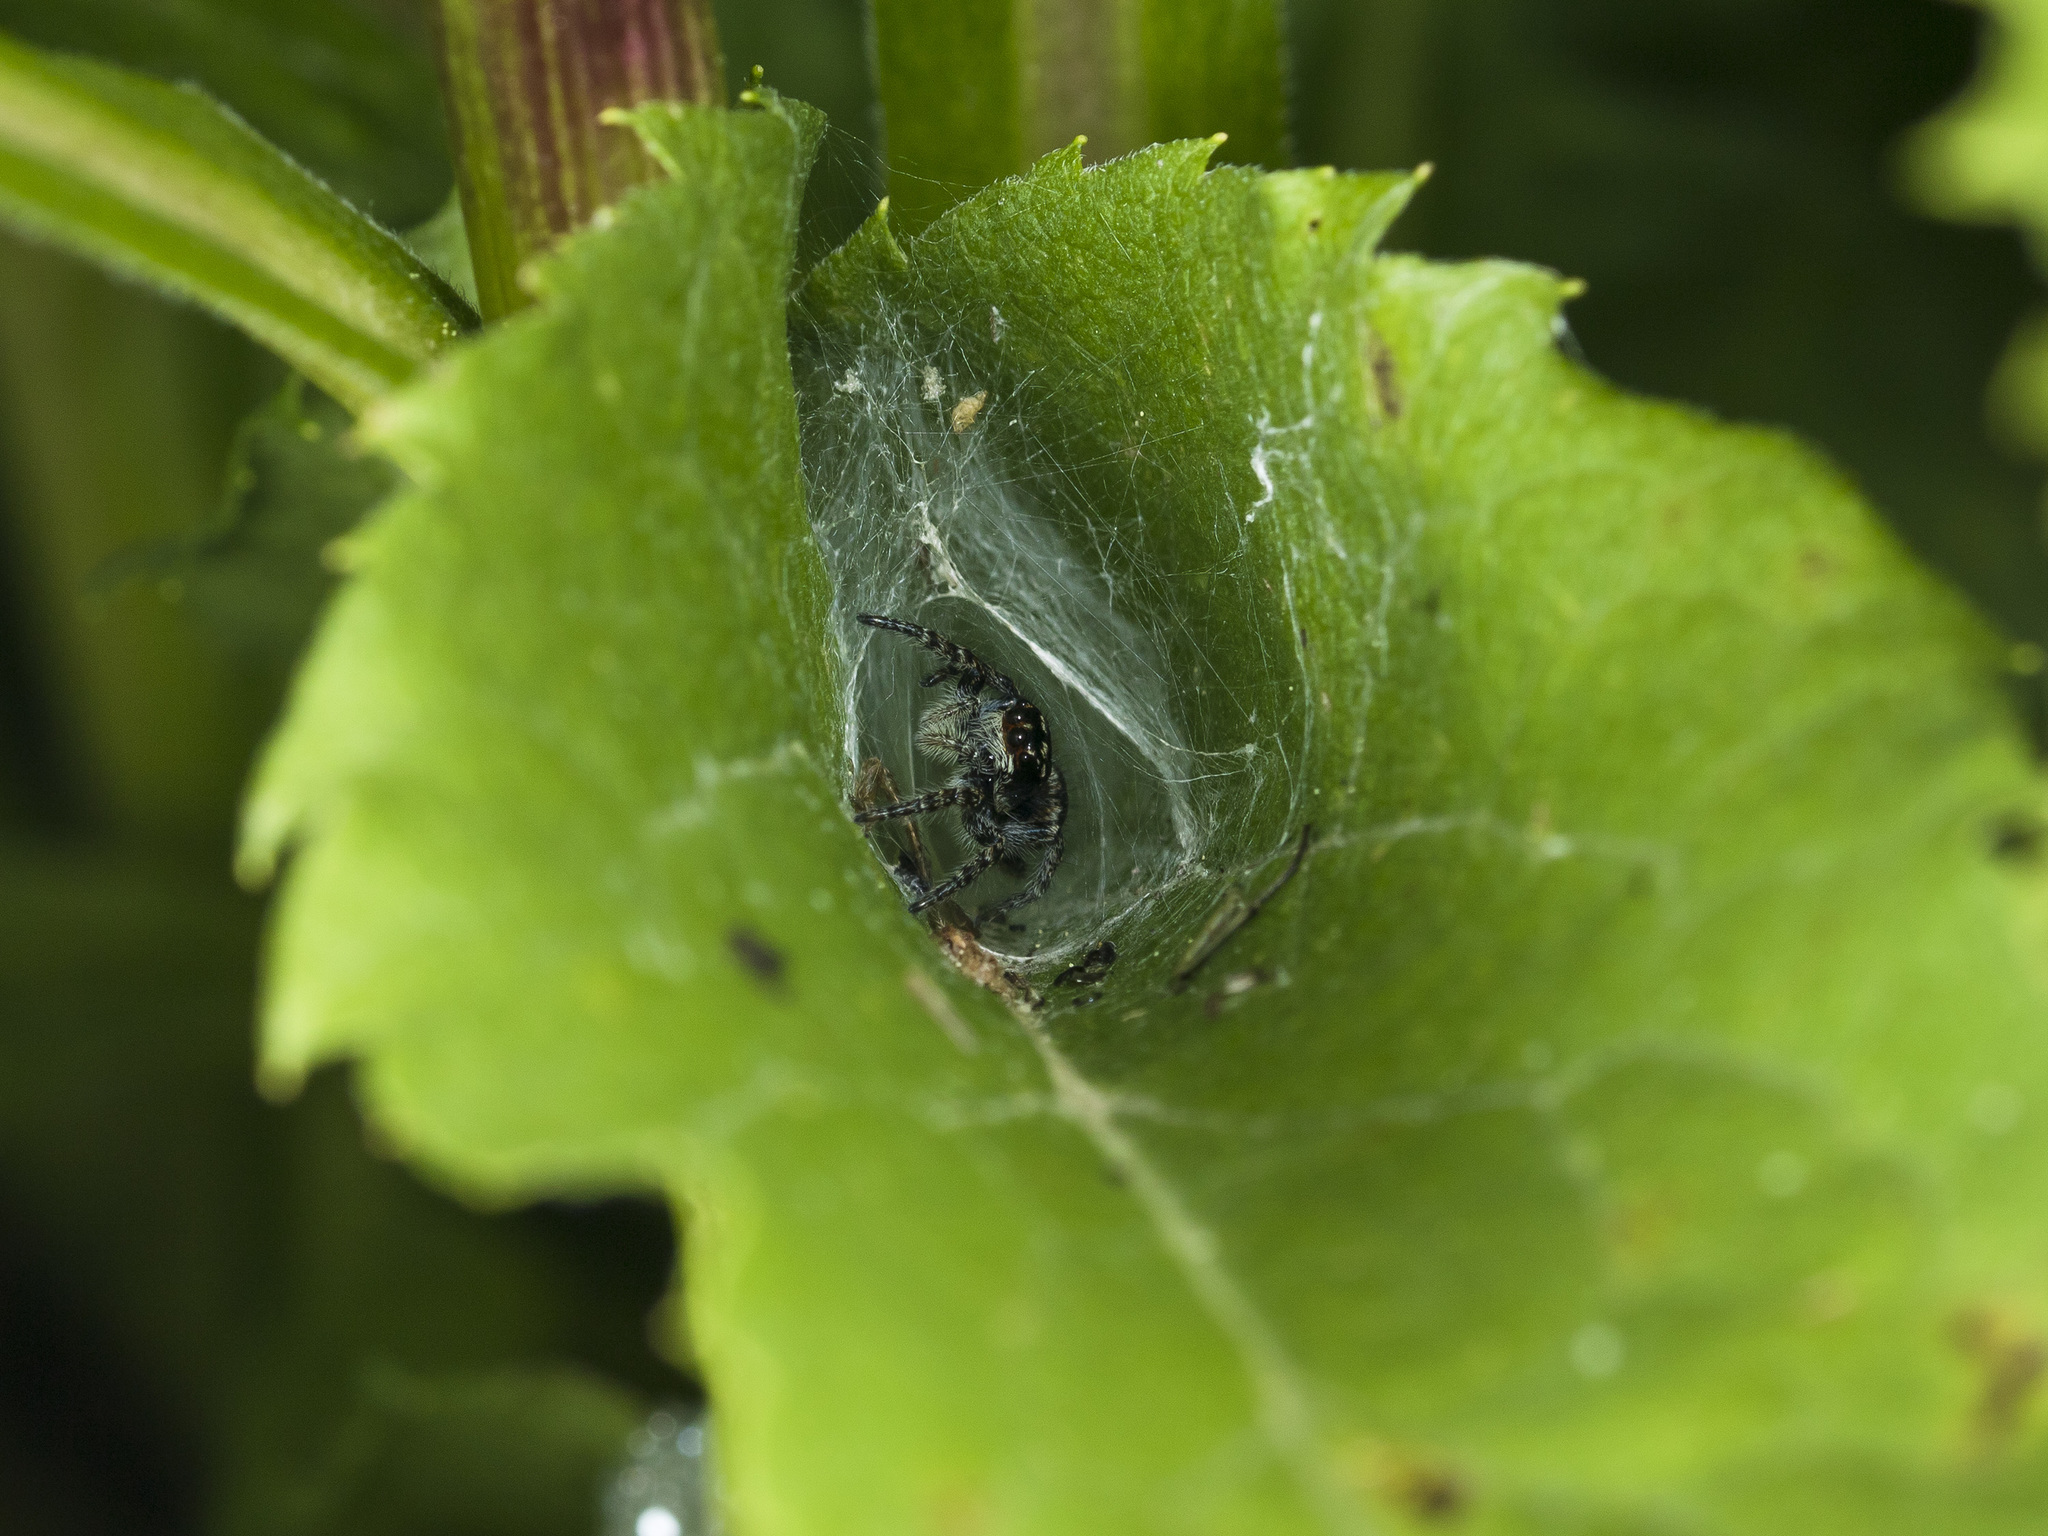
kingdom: Animalia
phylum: Arthropoda
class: Arachnida
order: Araneae
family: Salticidae
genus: Philaeus
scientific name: Philaeus chrysops
